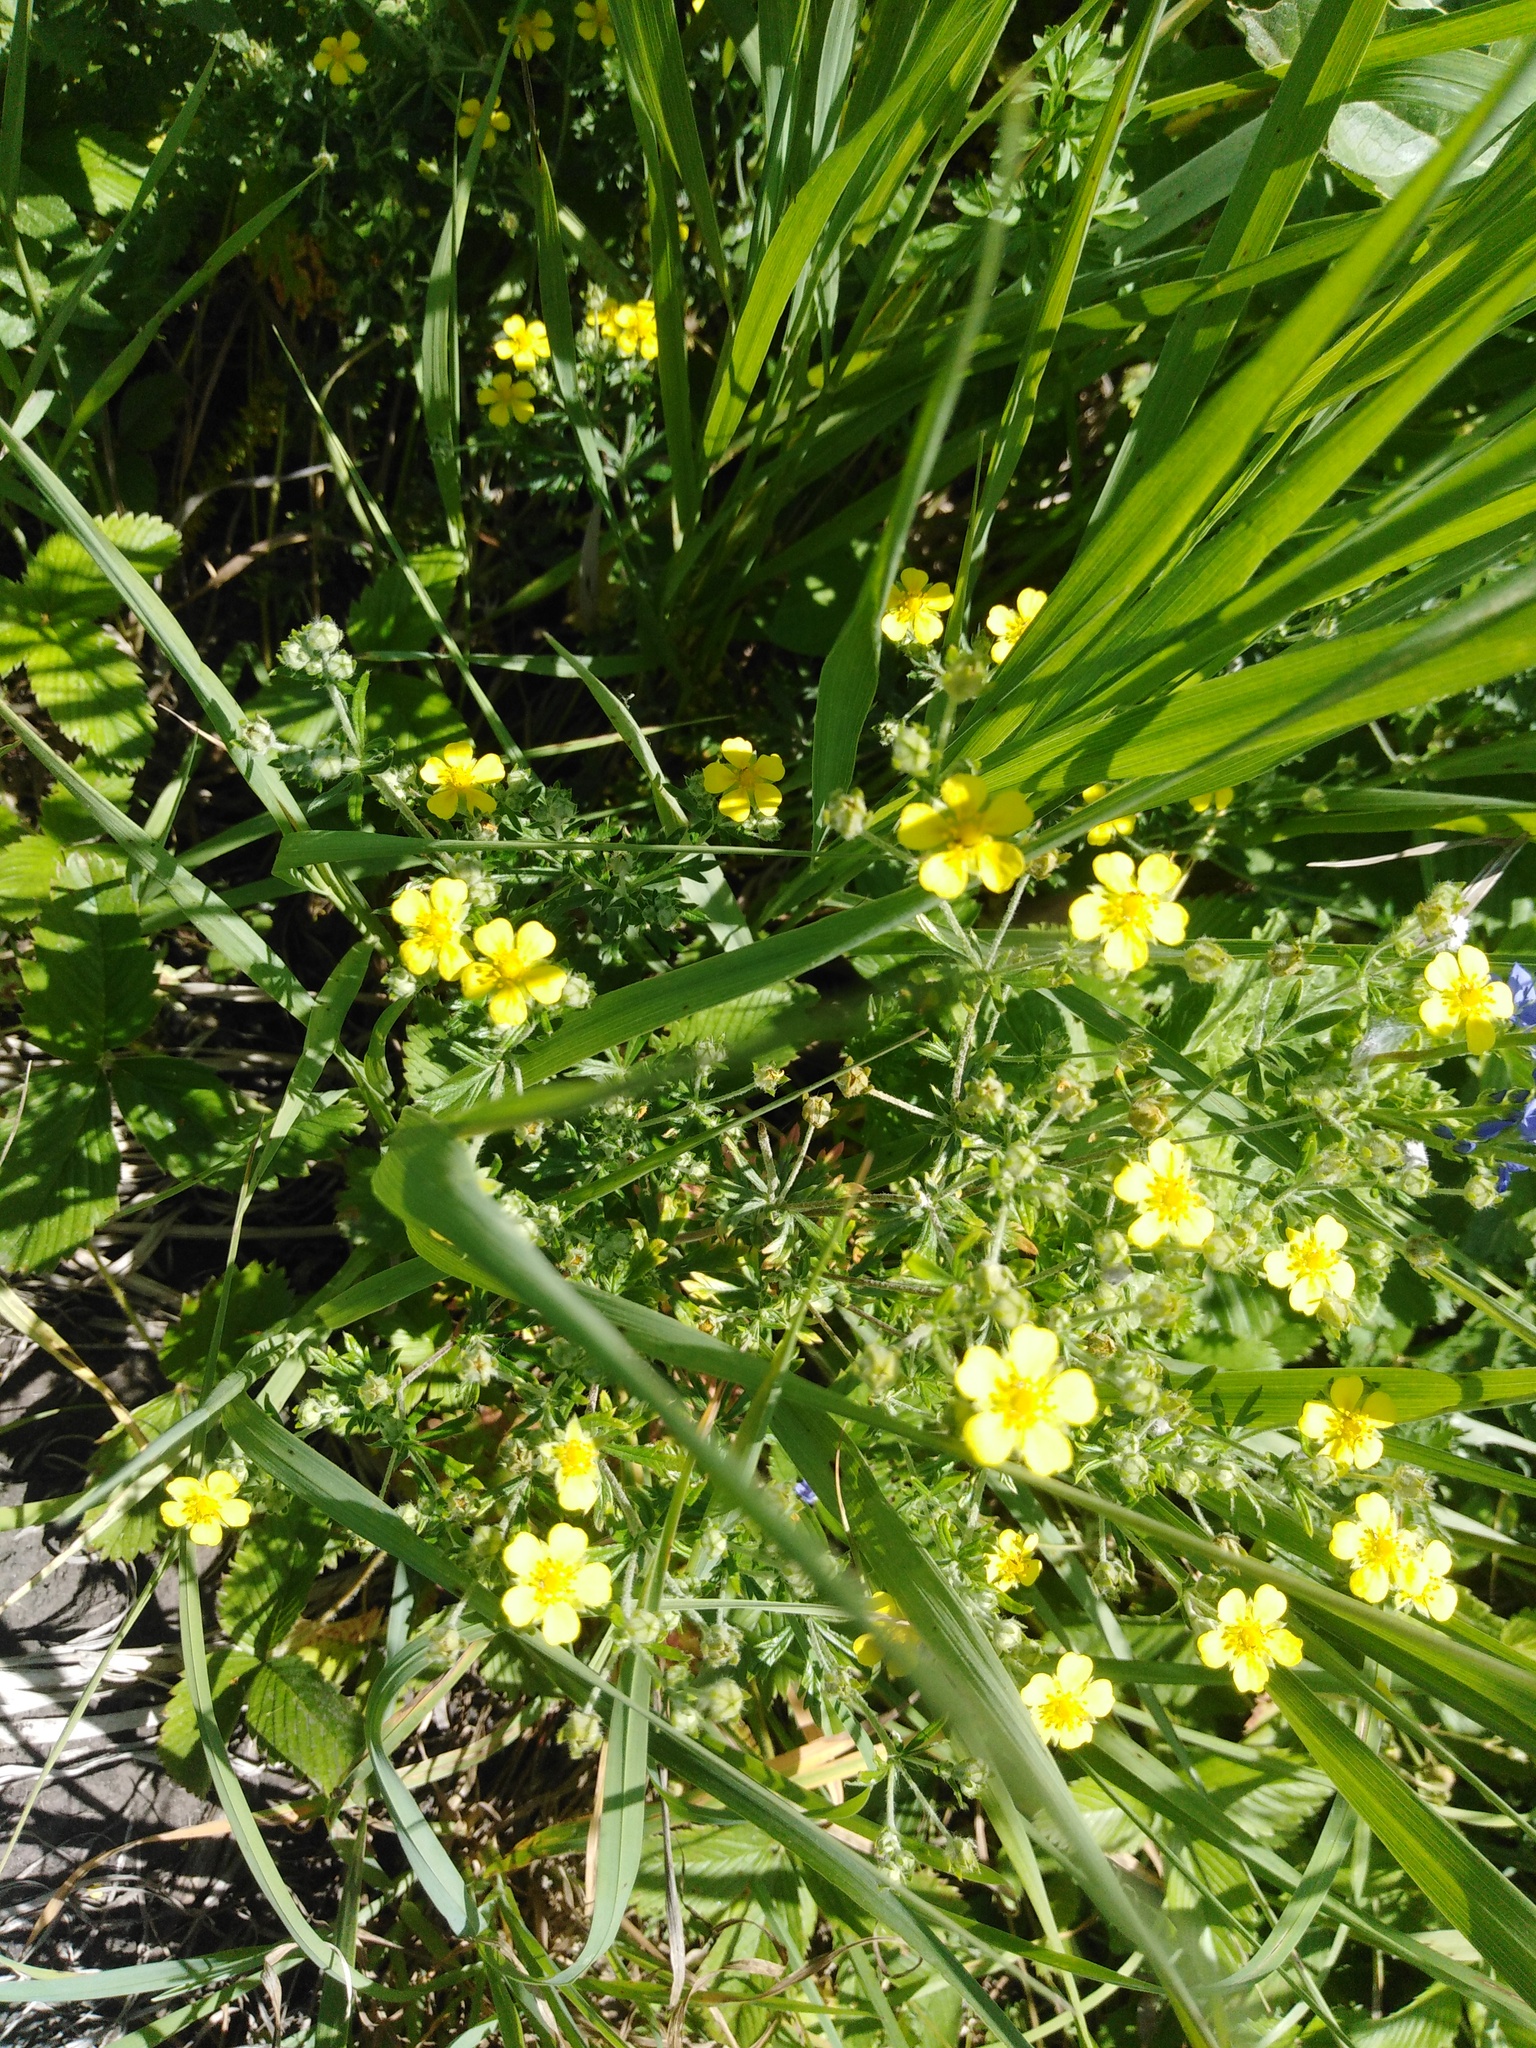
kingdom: Plantae
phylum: Tracheophyta
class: Magnoliopsida
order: Rosales
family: Rosaceae
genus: Potentilla
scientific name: Potentilla argentea
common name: Hoary cinquefoil
